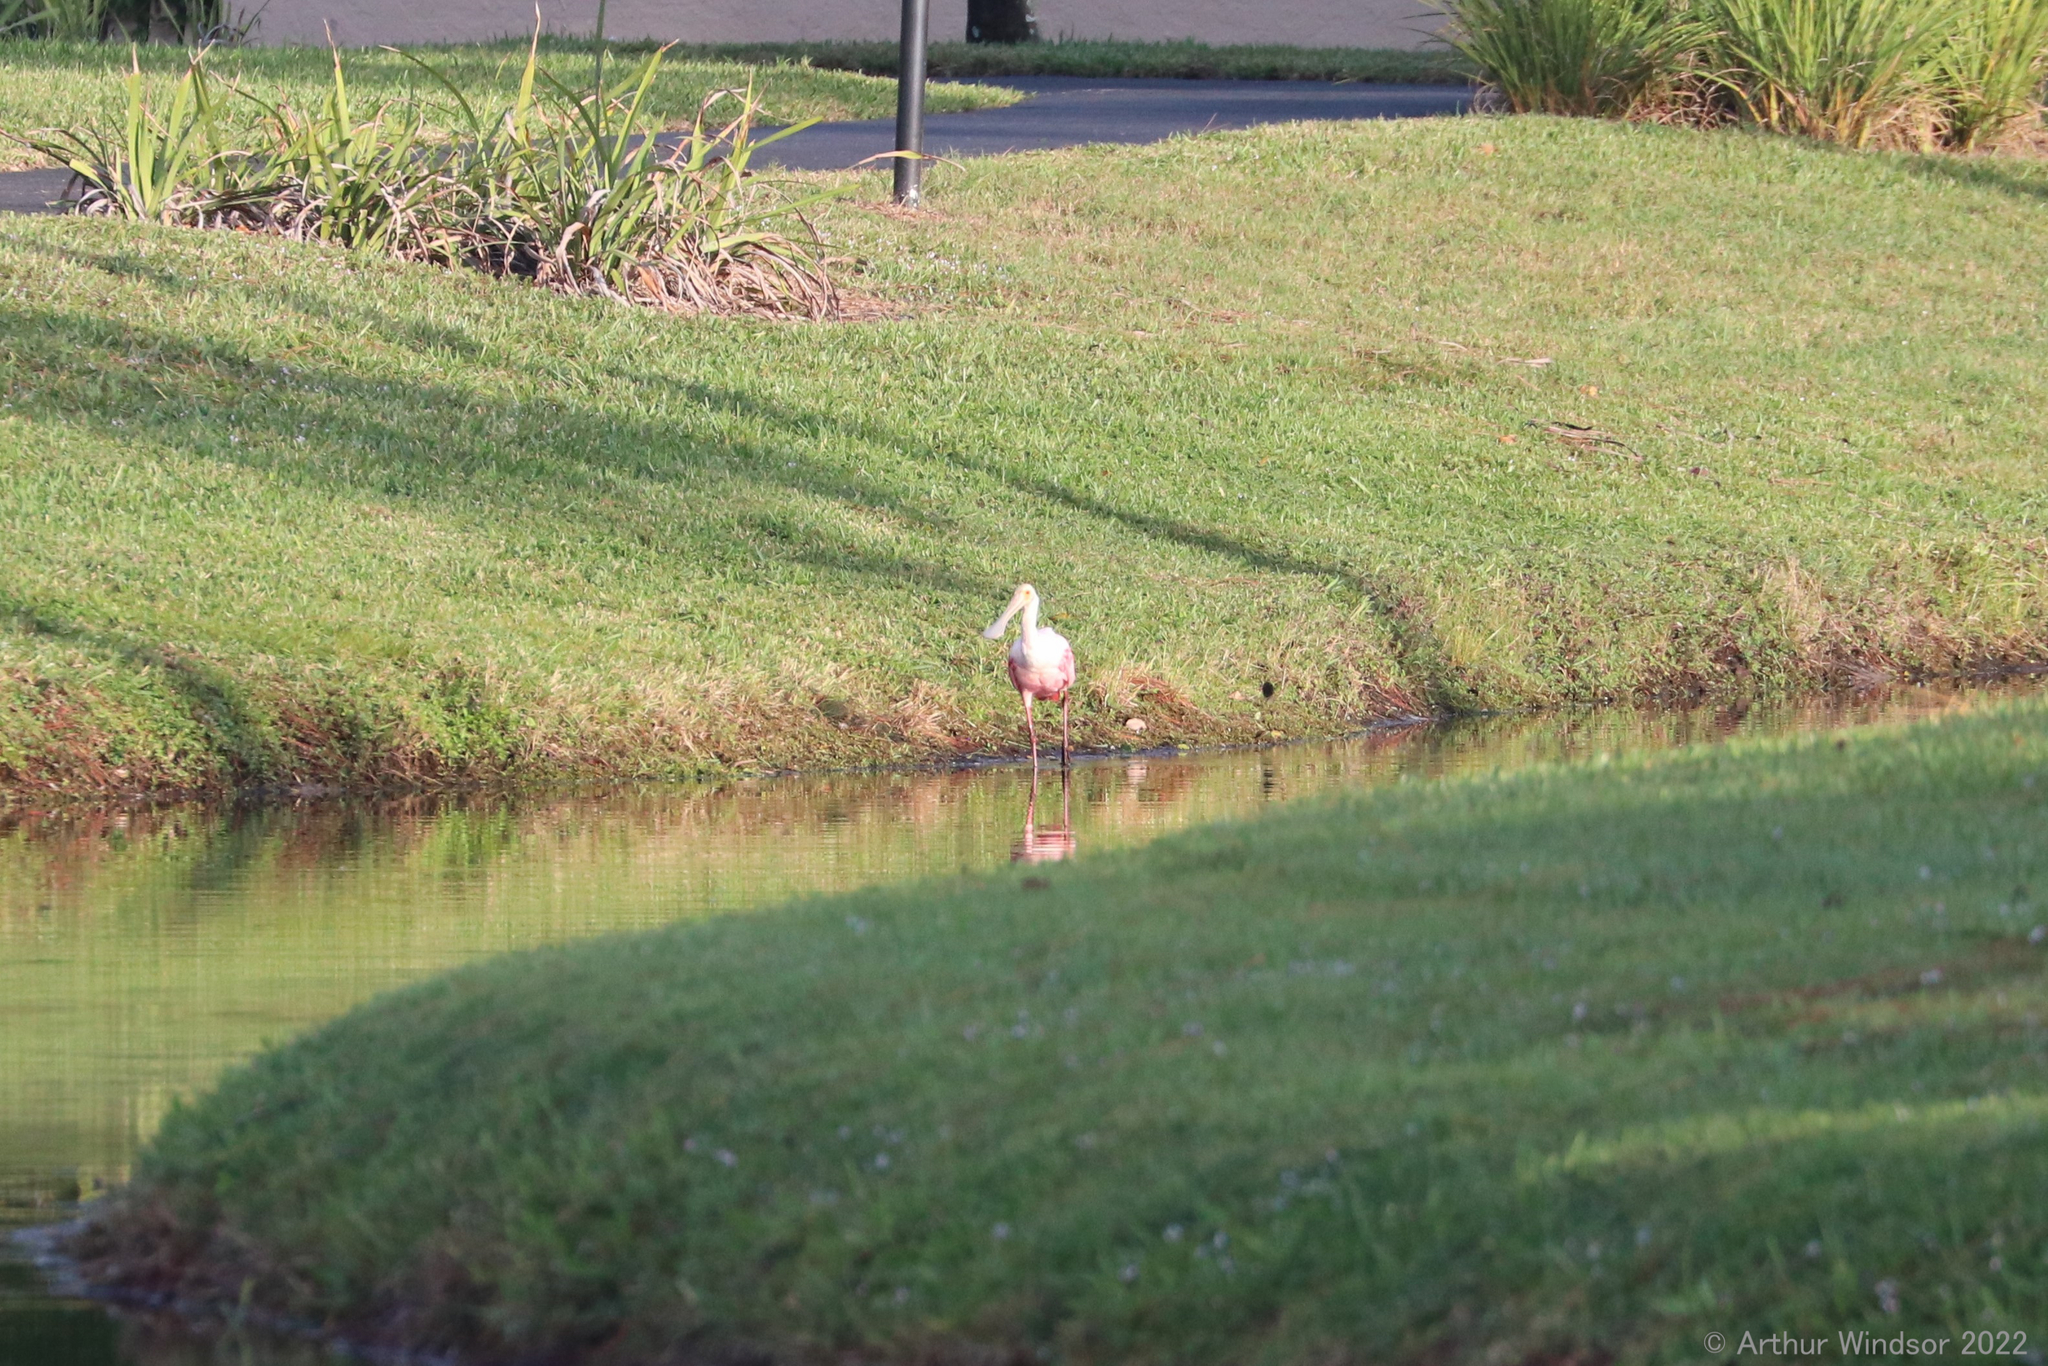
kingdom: Animalia
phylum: Chordata
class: Aves
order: Pelecaniformes
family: Threskiornithidae
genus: Platalea
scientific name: Platalea ajaja
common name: Roseate spoonbill
